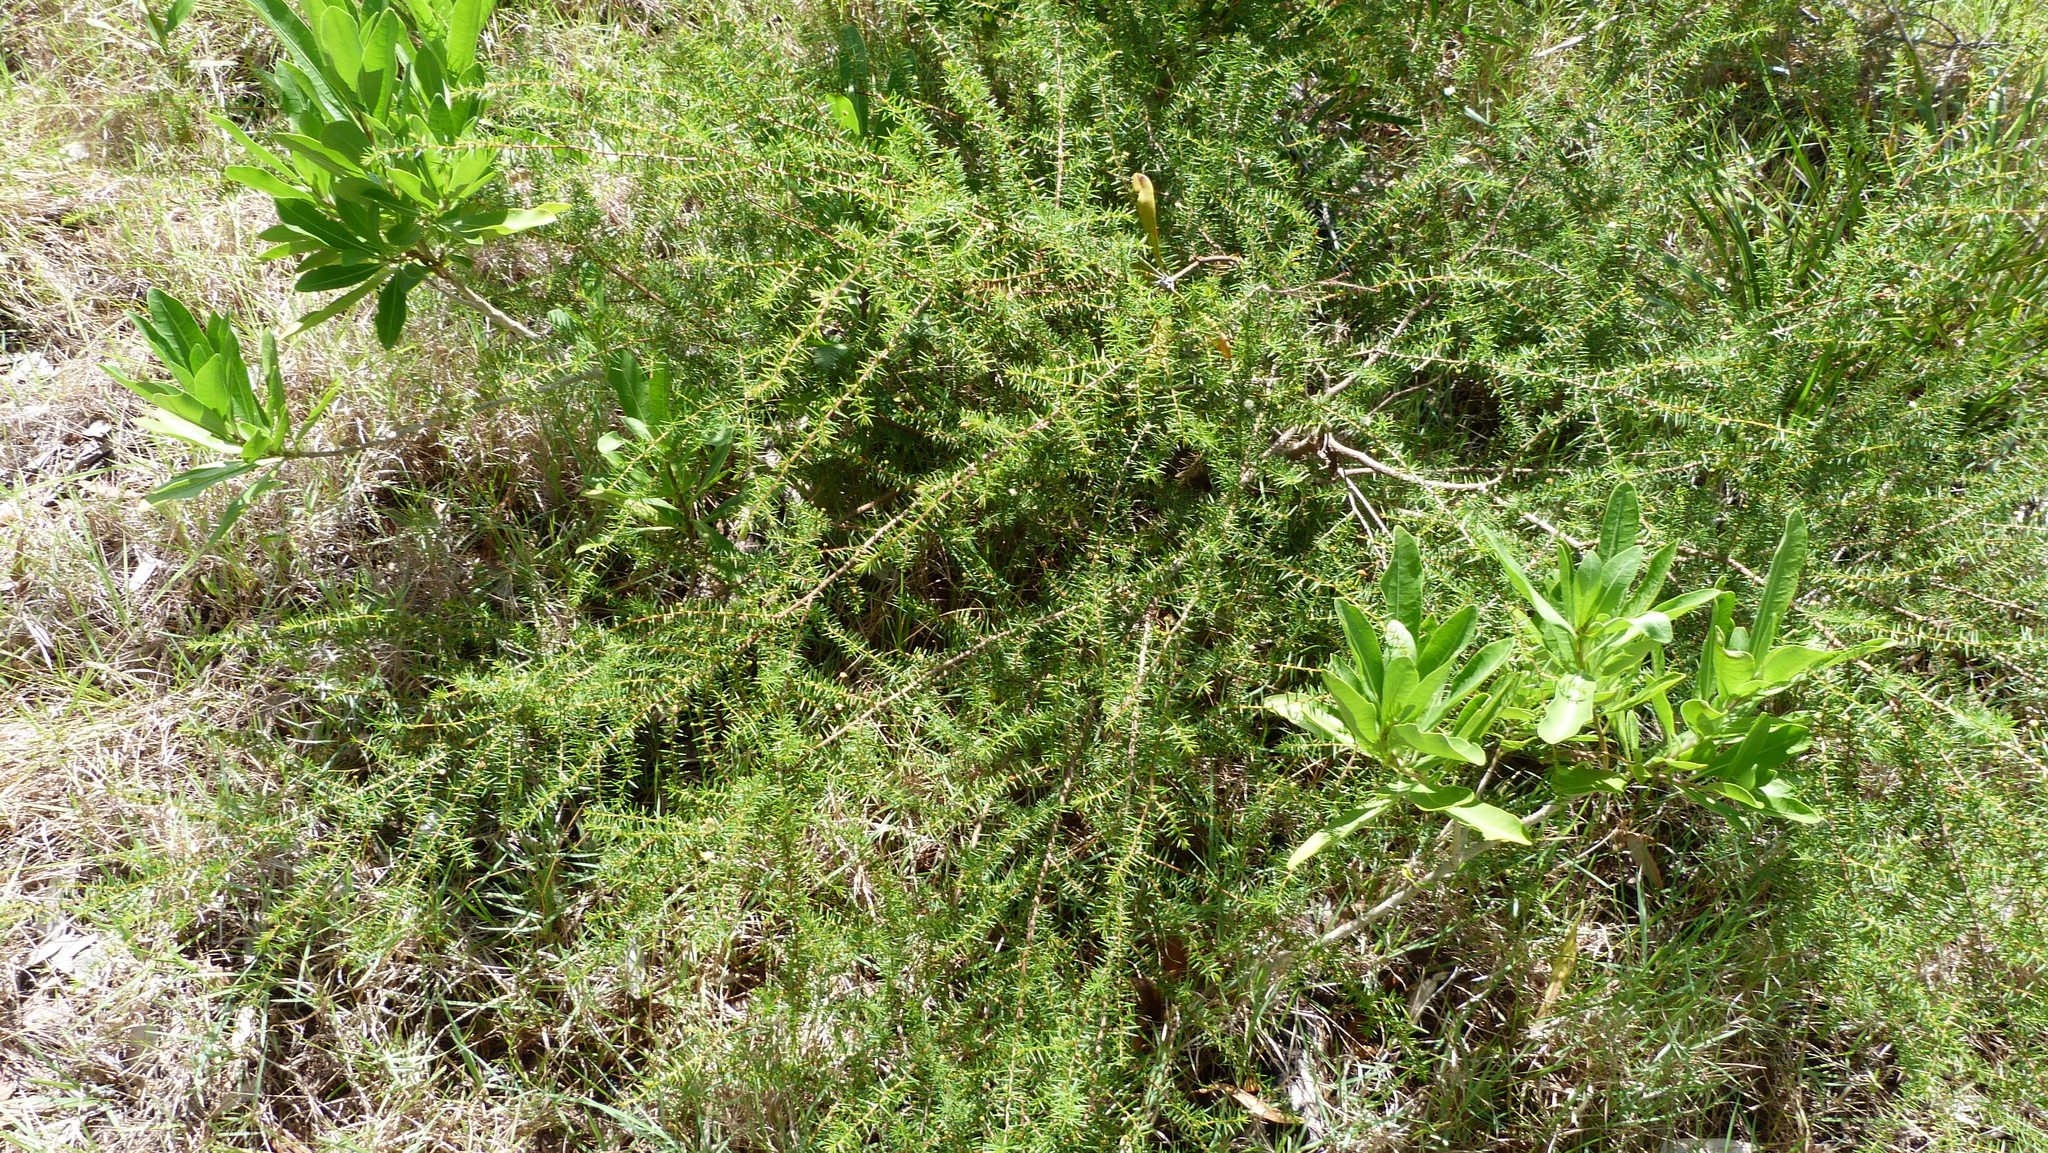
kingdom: Plantae
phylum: Tracheophyta
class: Magnoliopsida
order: Fabales
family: Fabaceae
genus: Acacia
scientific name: Acacia ulicifolia
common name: Juniper wattle
